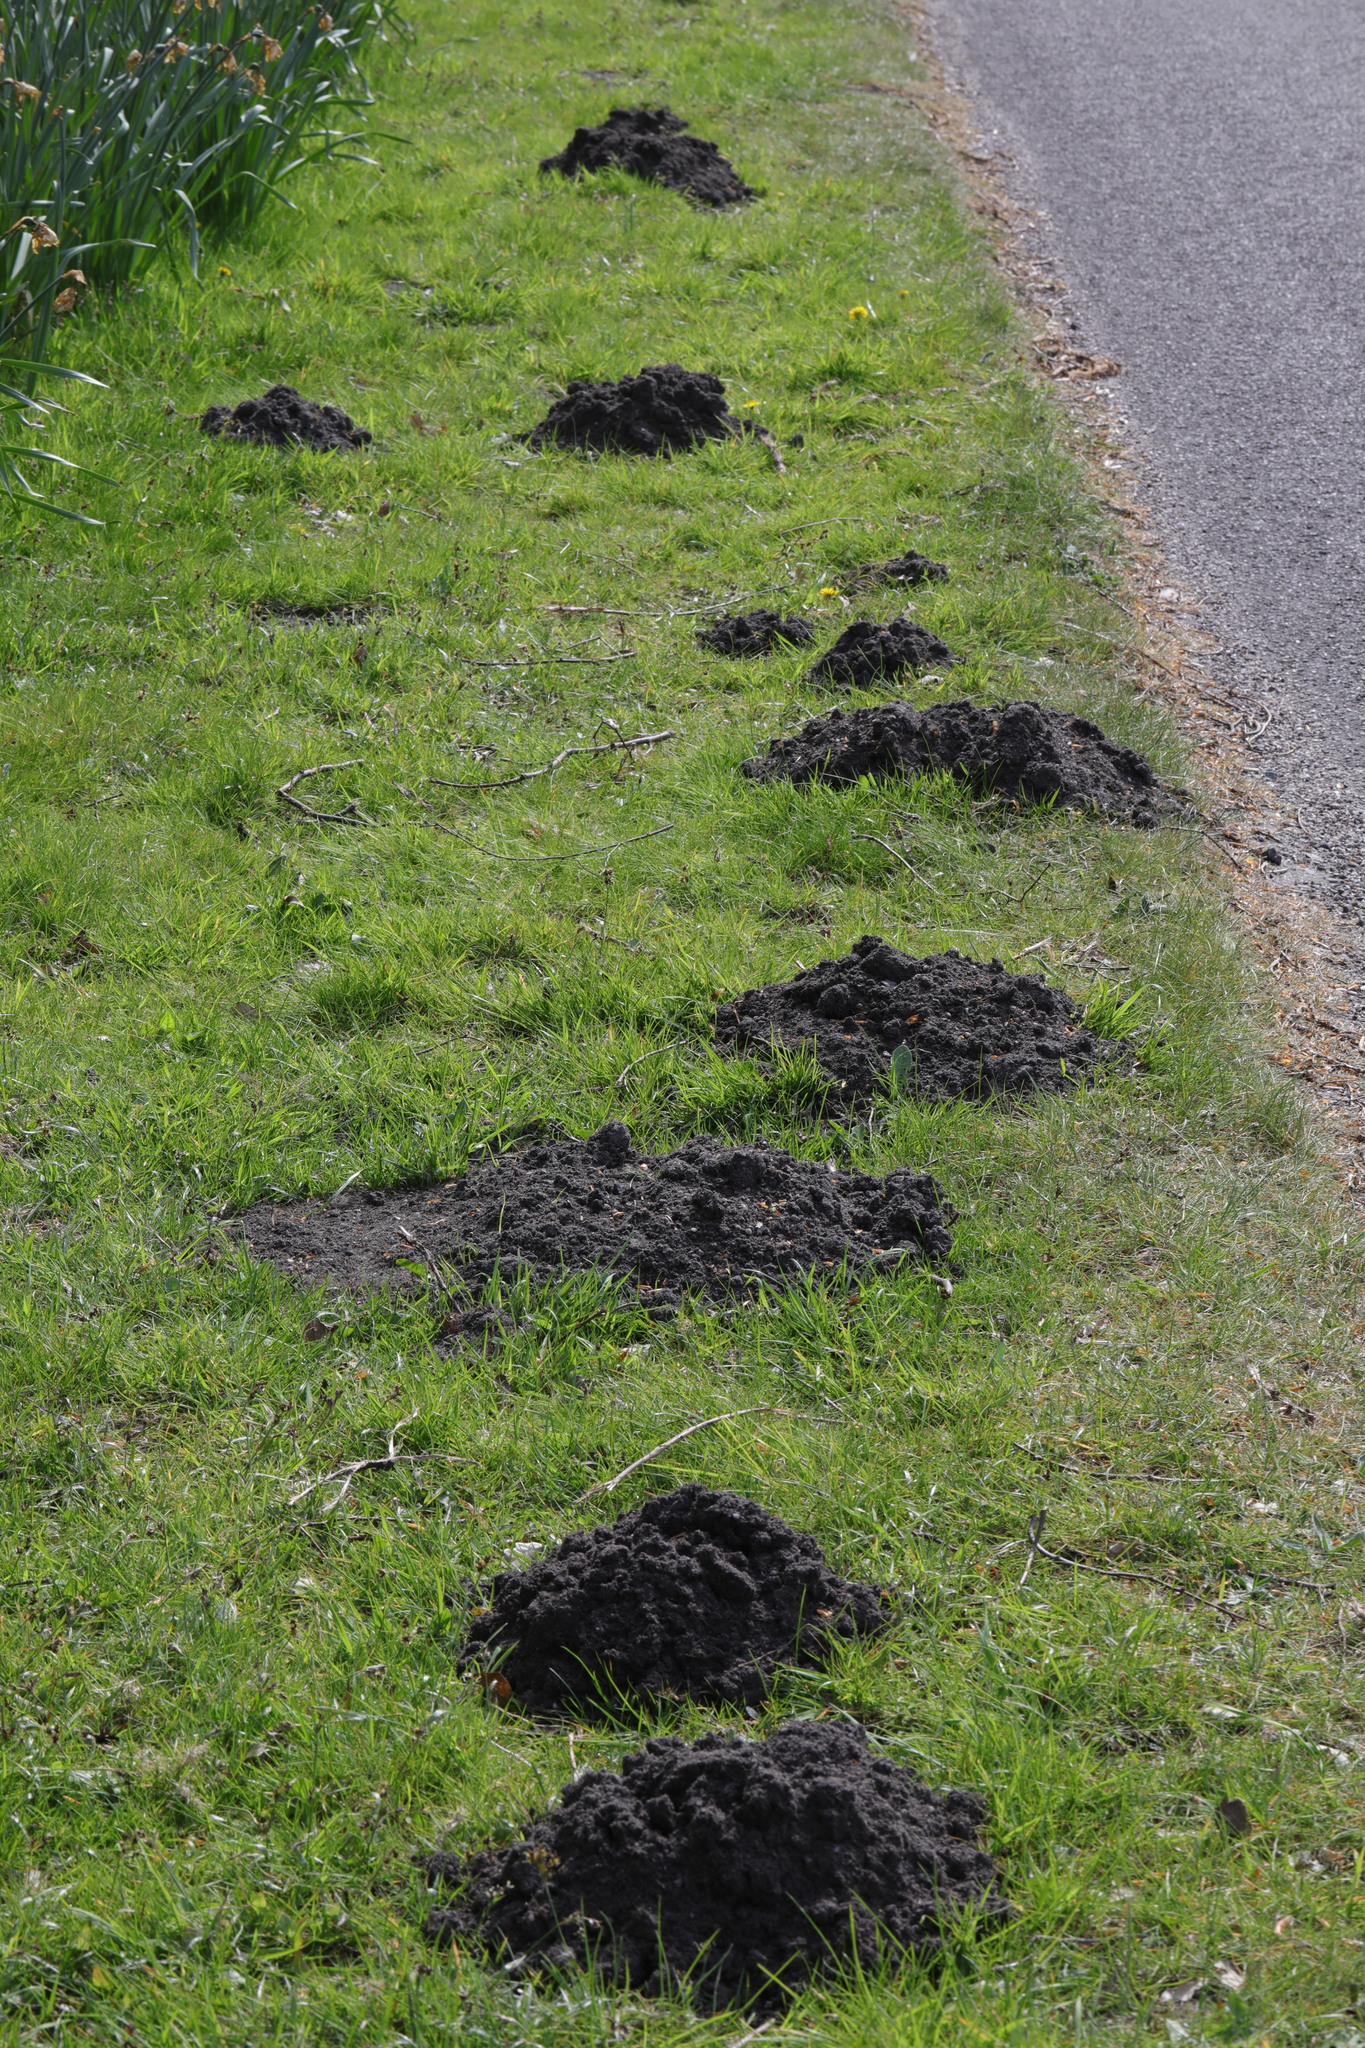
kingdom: Animalia
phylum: Chordata
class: Mammalia
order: Soricomorpha
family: Talpidae
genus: Talpa
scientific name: Talpa europaea
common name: European mole
